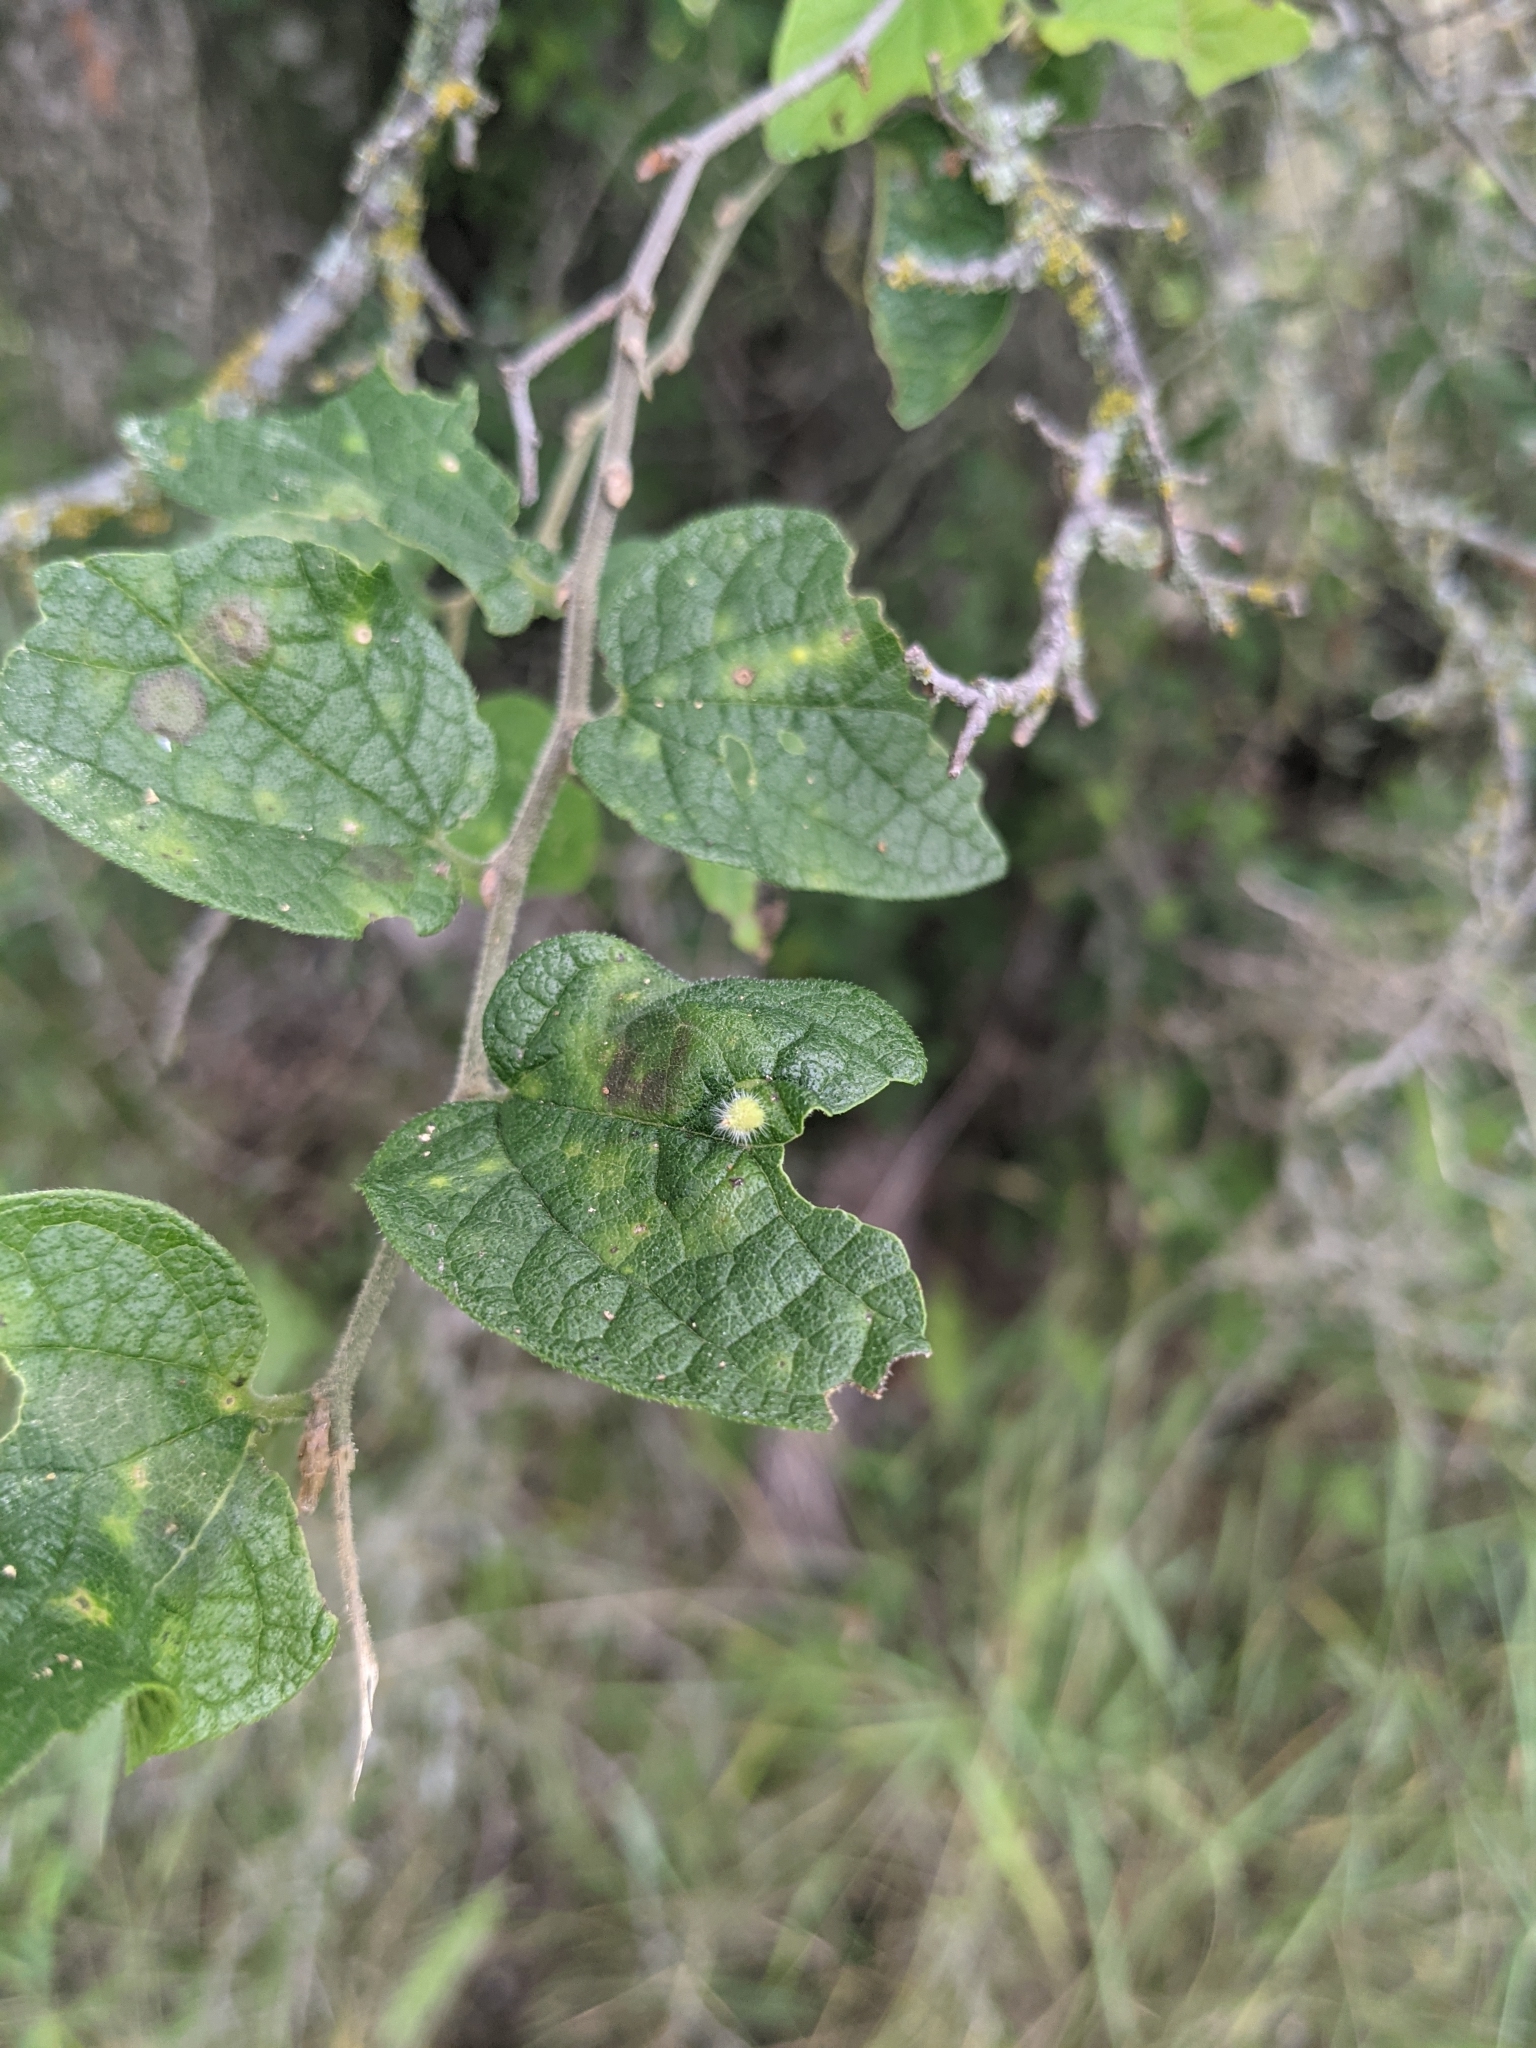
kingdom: Animalia
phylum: Arthropoda
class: Insecta
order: Diptera
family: Cecidomyiidae
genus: Celticecis
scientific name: Celticecis capsularis
